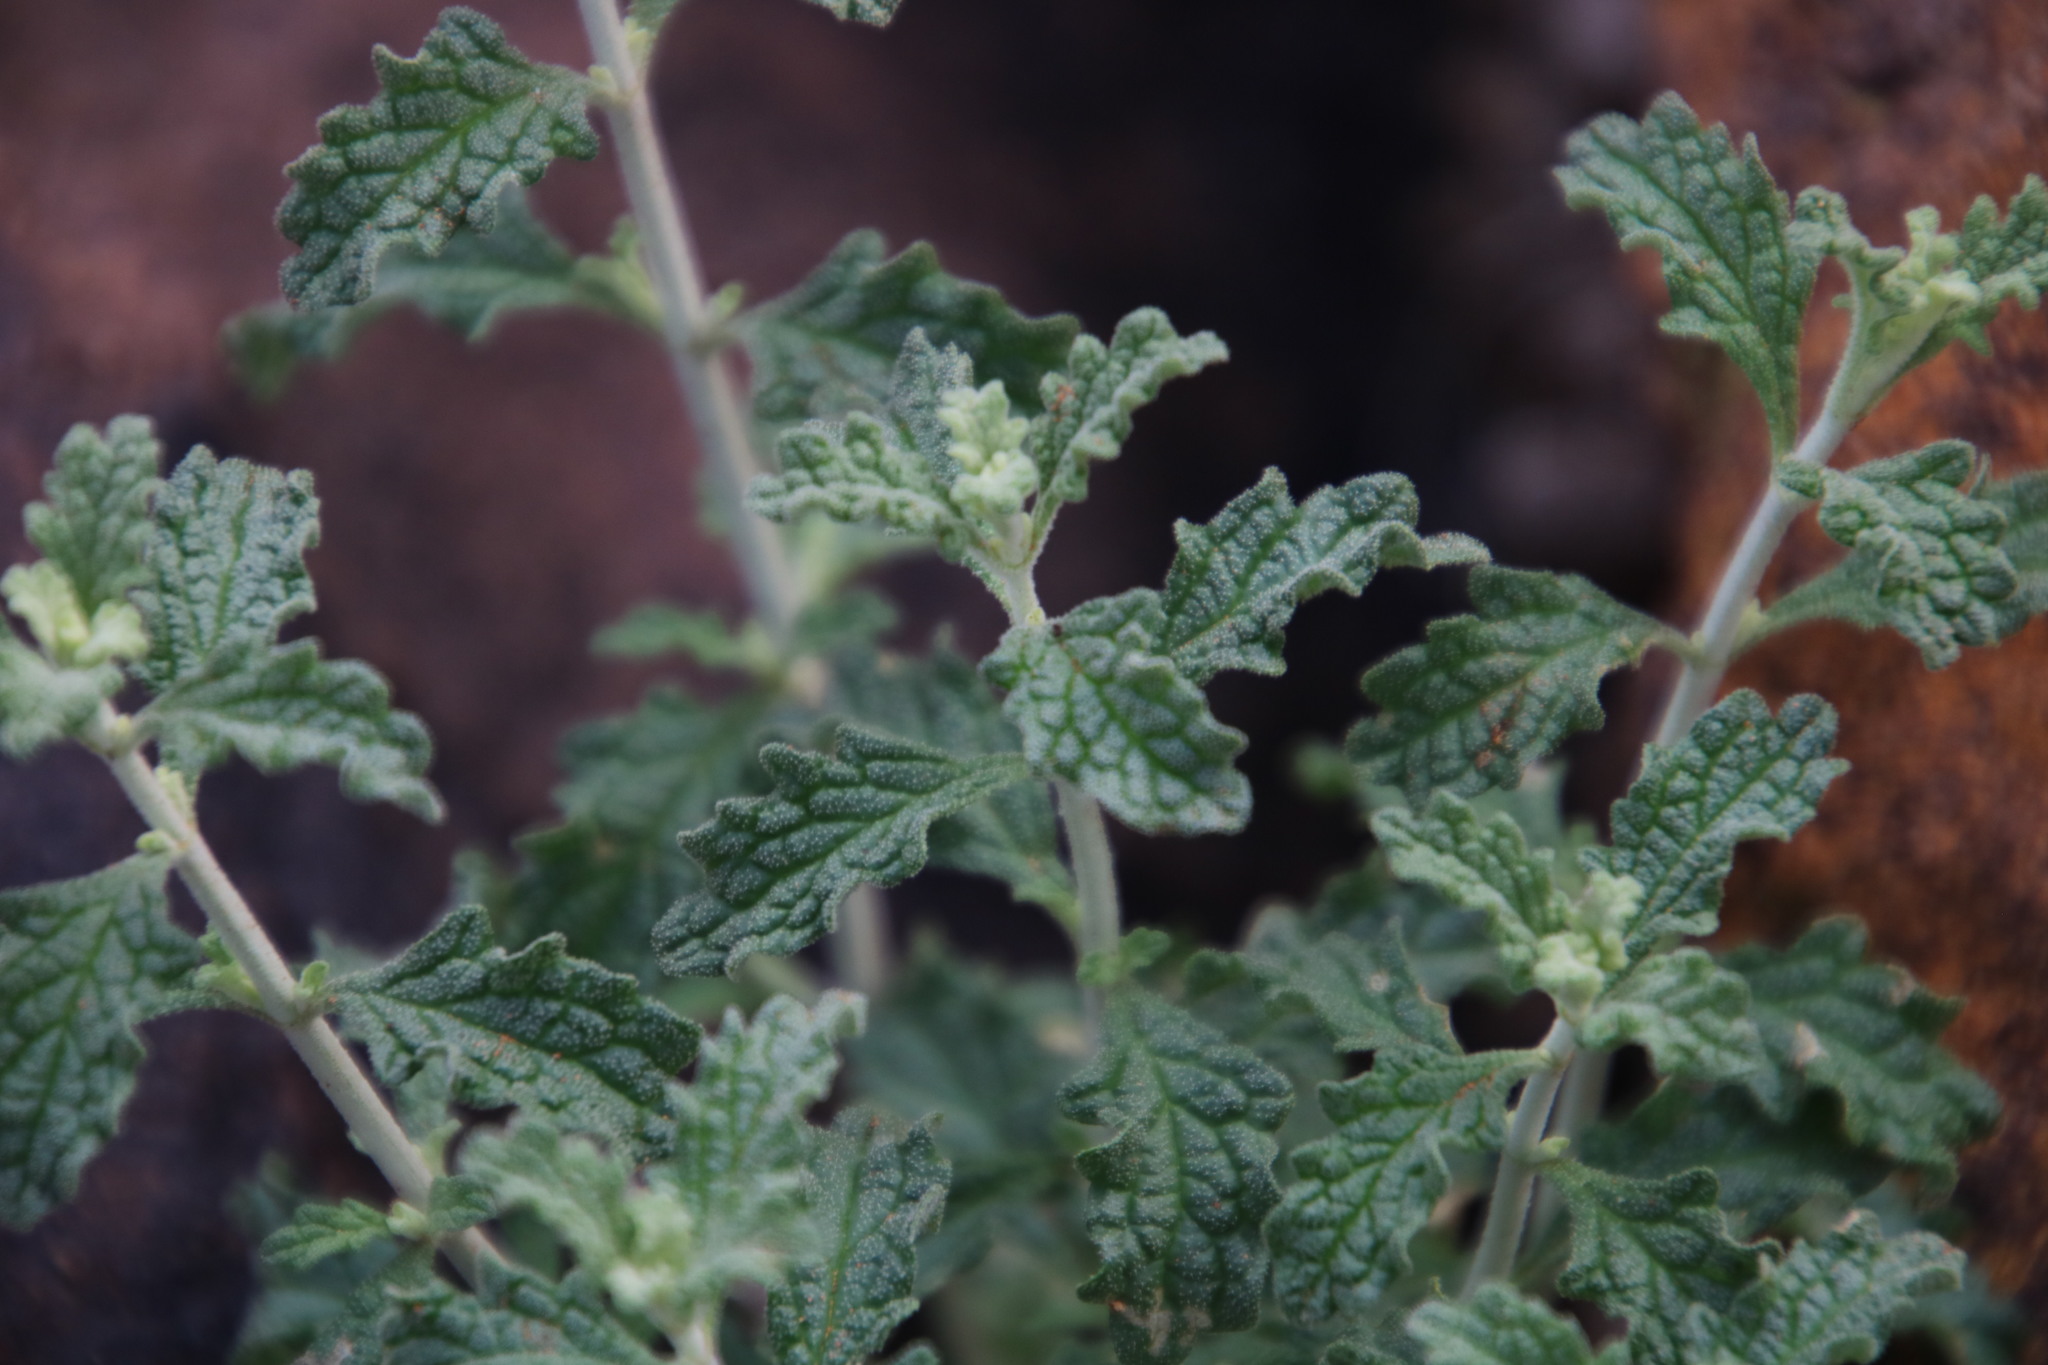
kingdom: Plantae
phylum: Tracheophyta
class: Magnoliopsida
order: Lamiales
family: Lamiaceae
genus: Stachys
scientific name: Stachys cuneata
